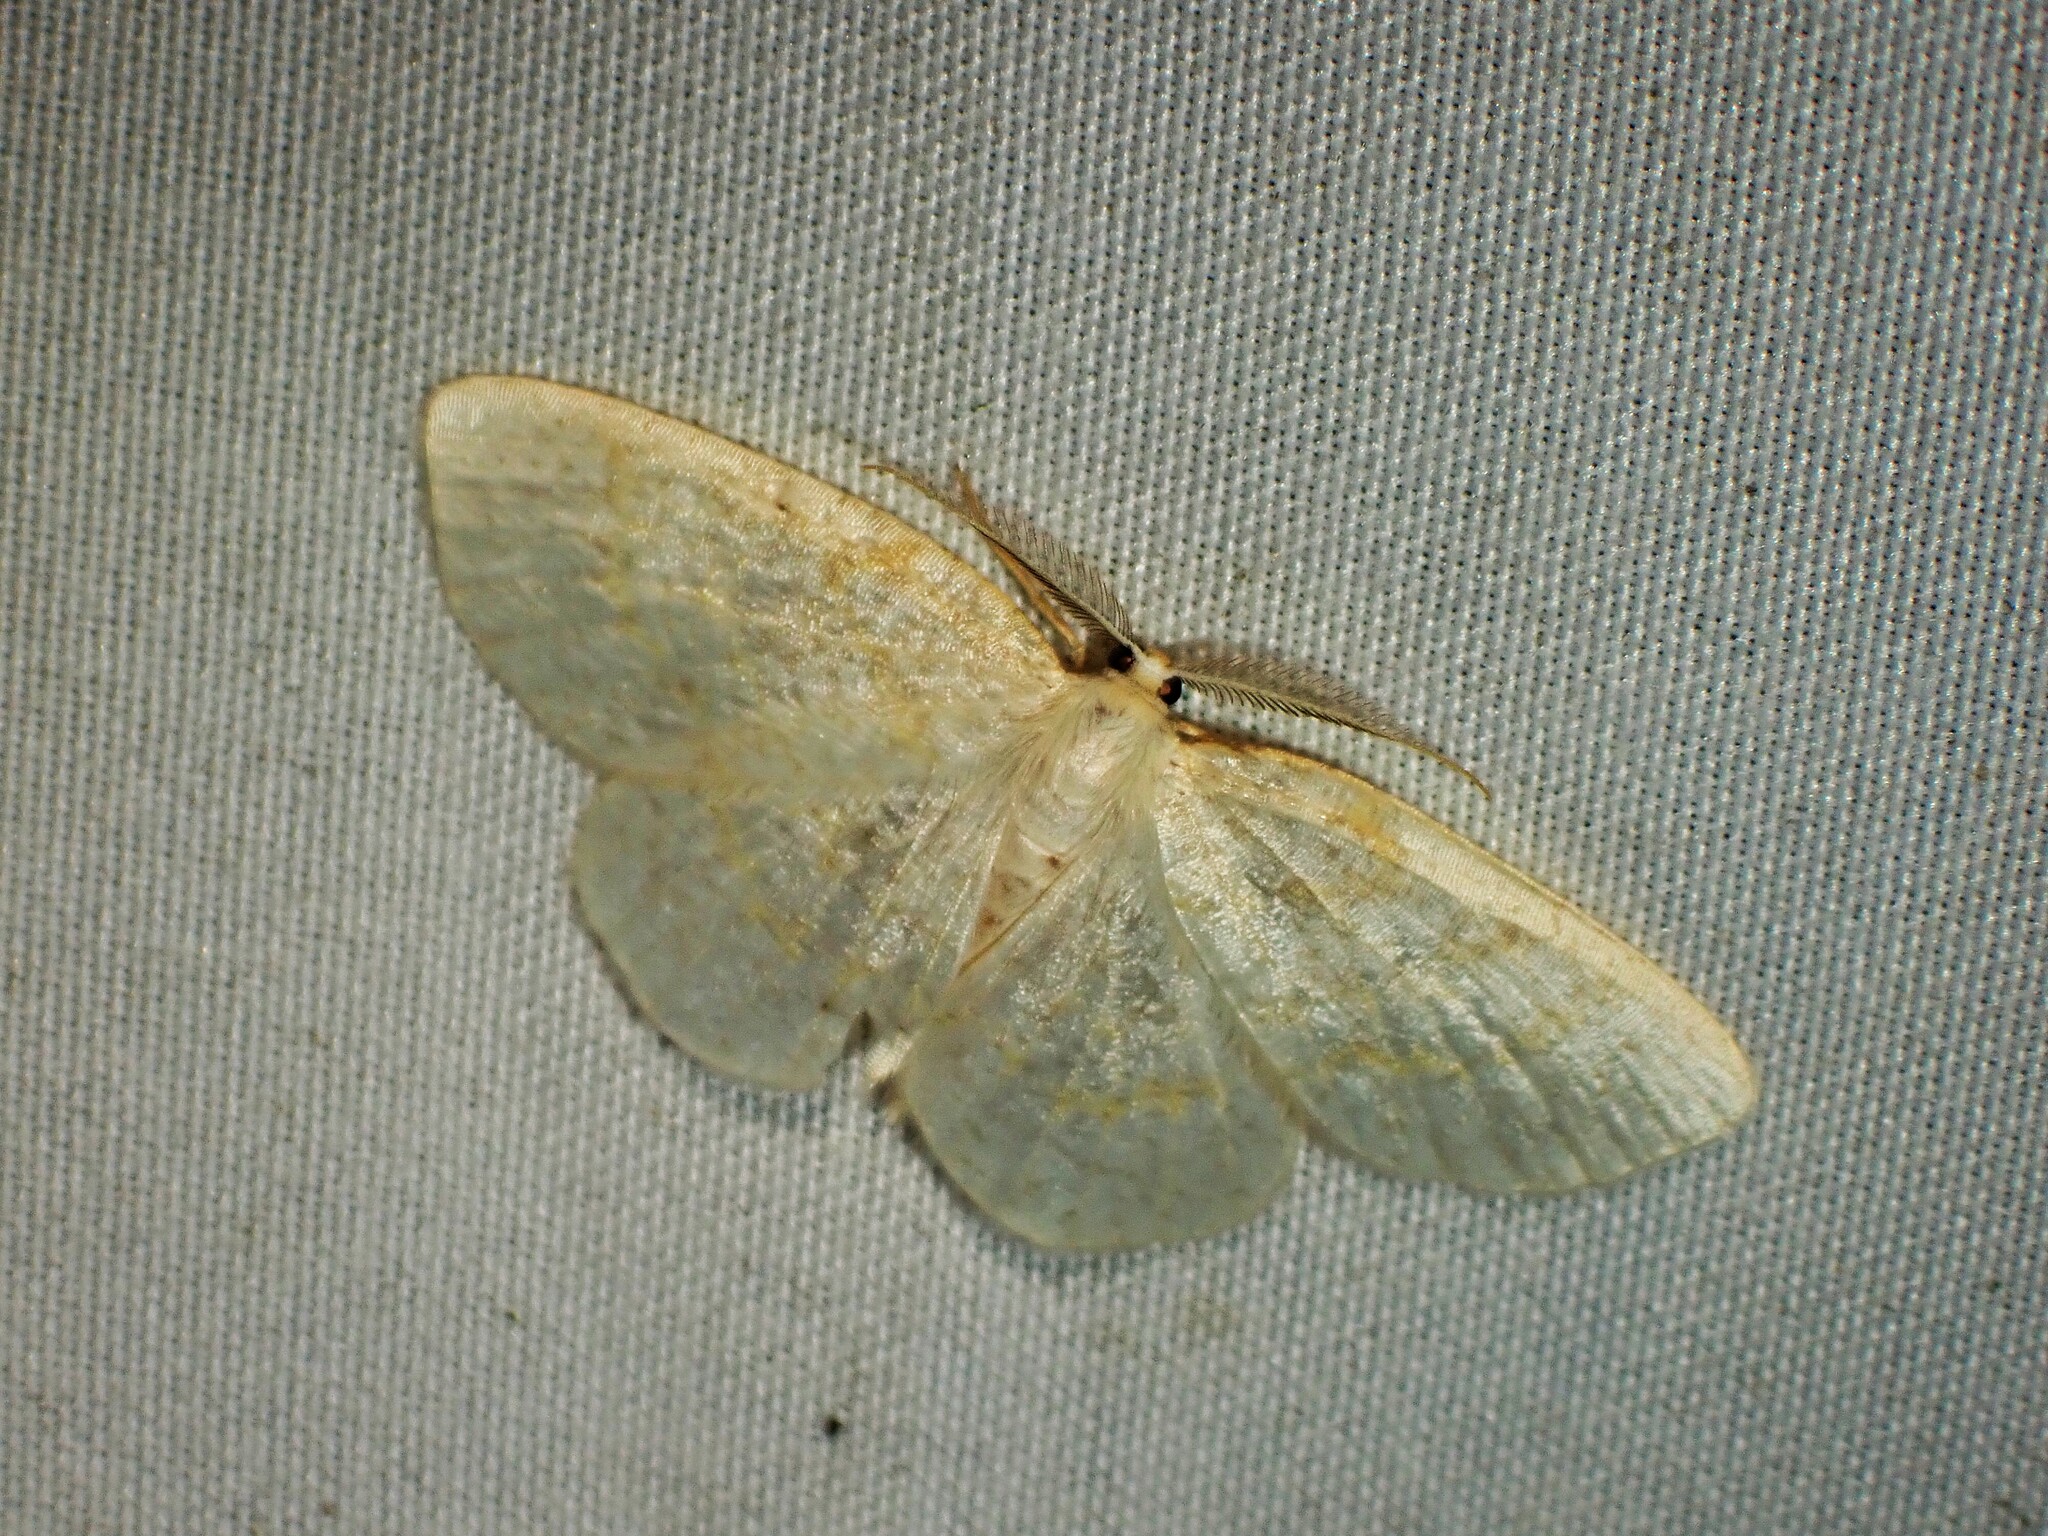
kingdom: Animalia
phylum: Arthropoda
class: Insecta
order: Lepidoptera
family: Geometridae
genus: Cabera
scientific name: Cabera erythemaria
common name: Yellow-dusted cream moth
